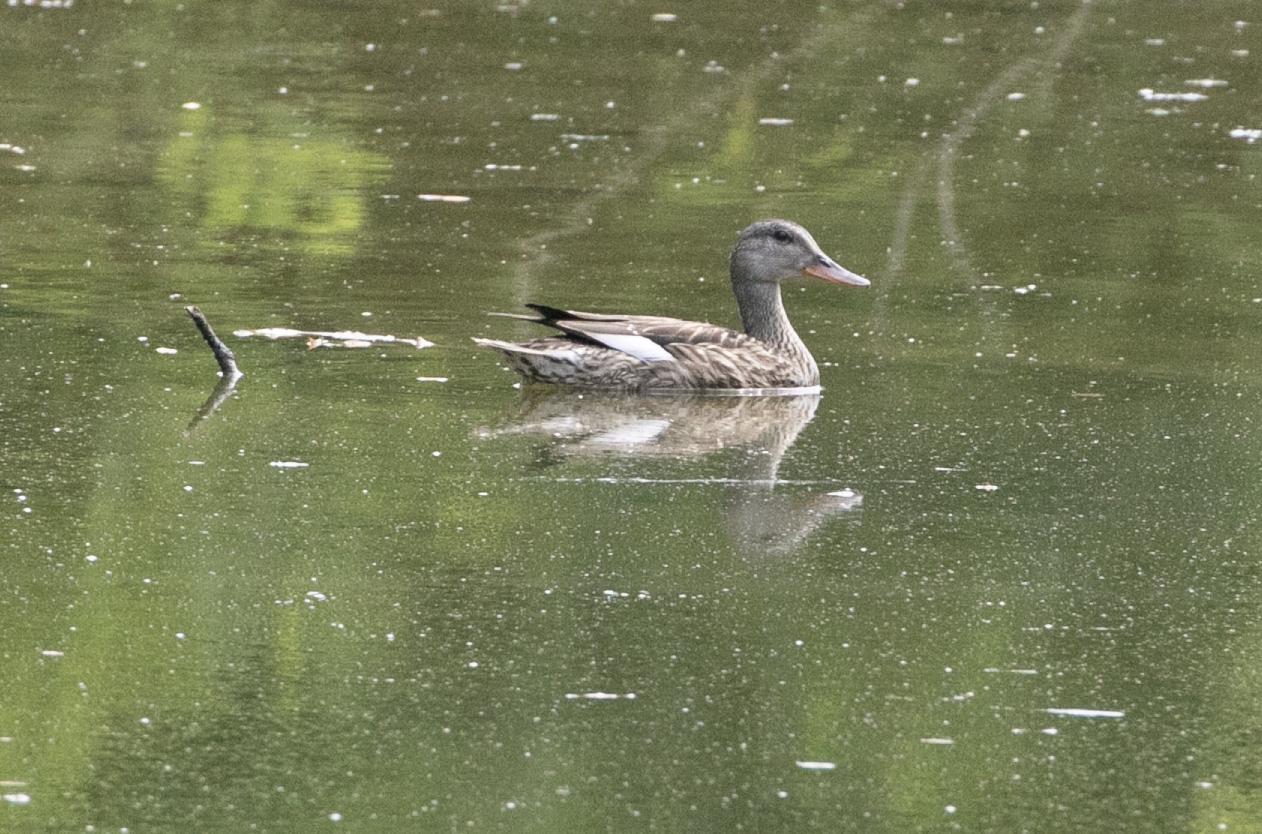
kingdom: Animalia
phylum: Chordata
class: Aves
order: Anseriformes
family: Anatidae
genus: Mareca
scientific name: Mareca strepera
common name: Gadwall
